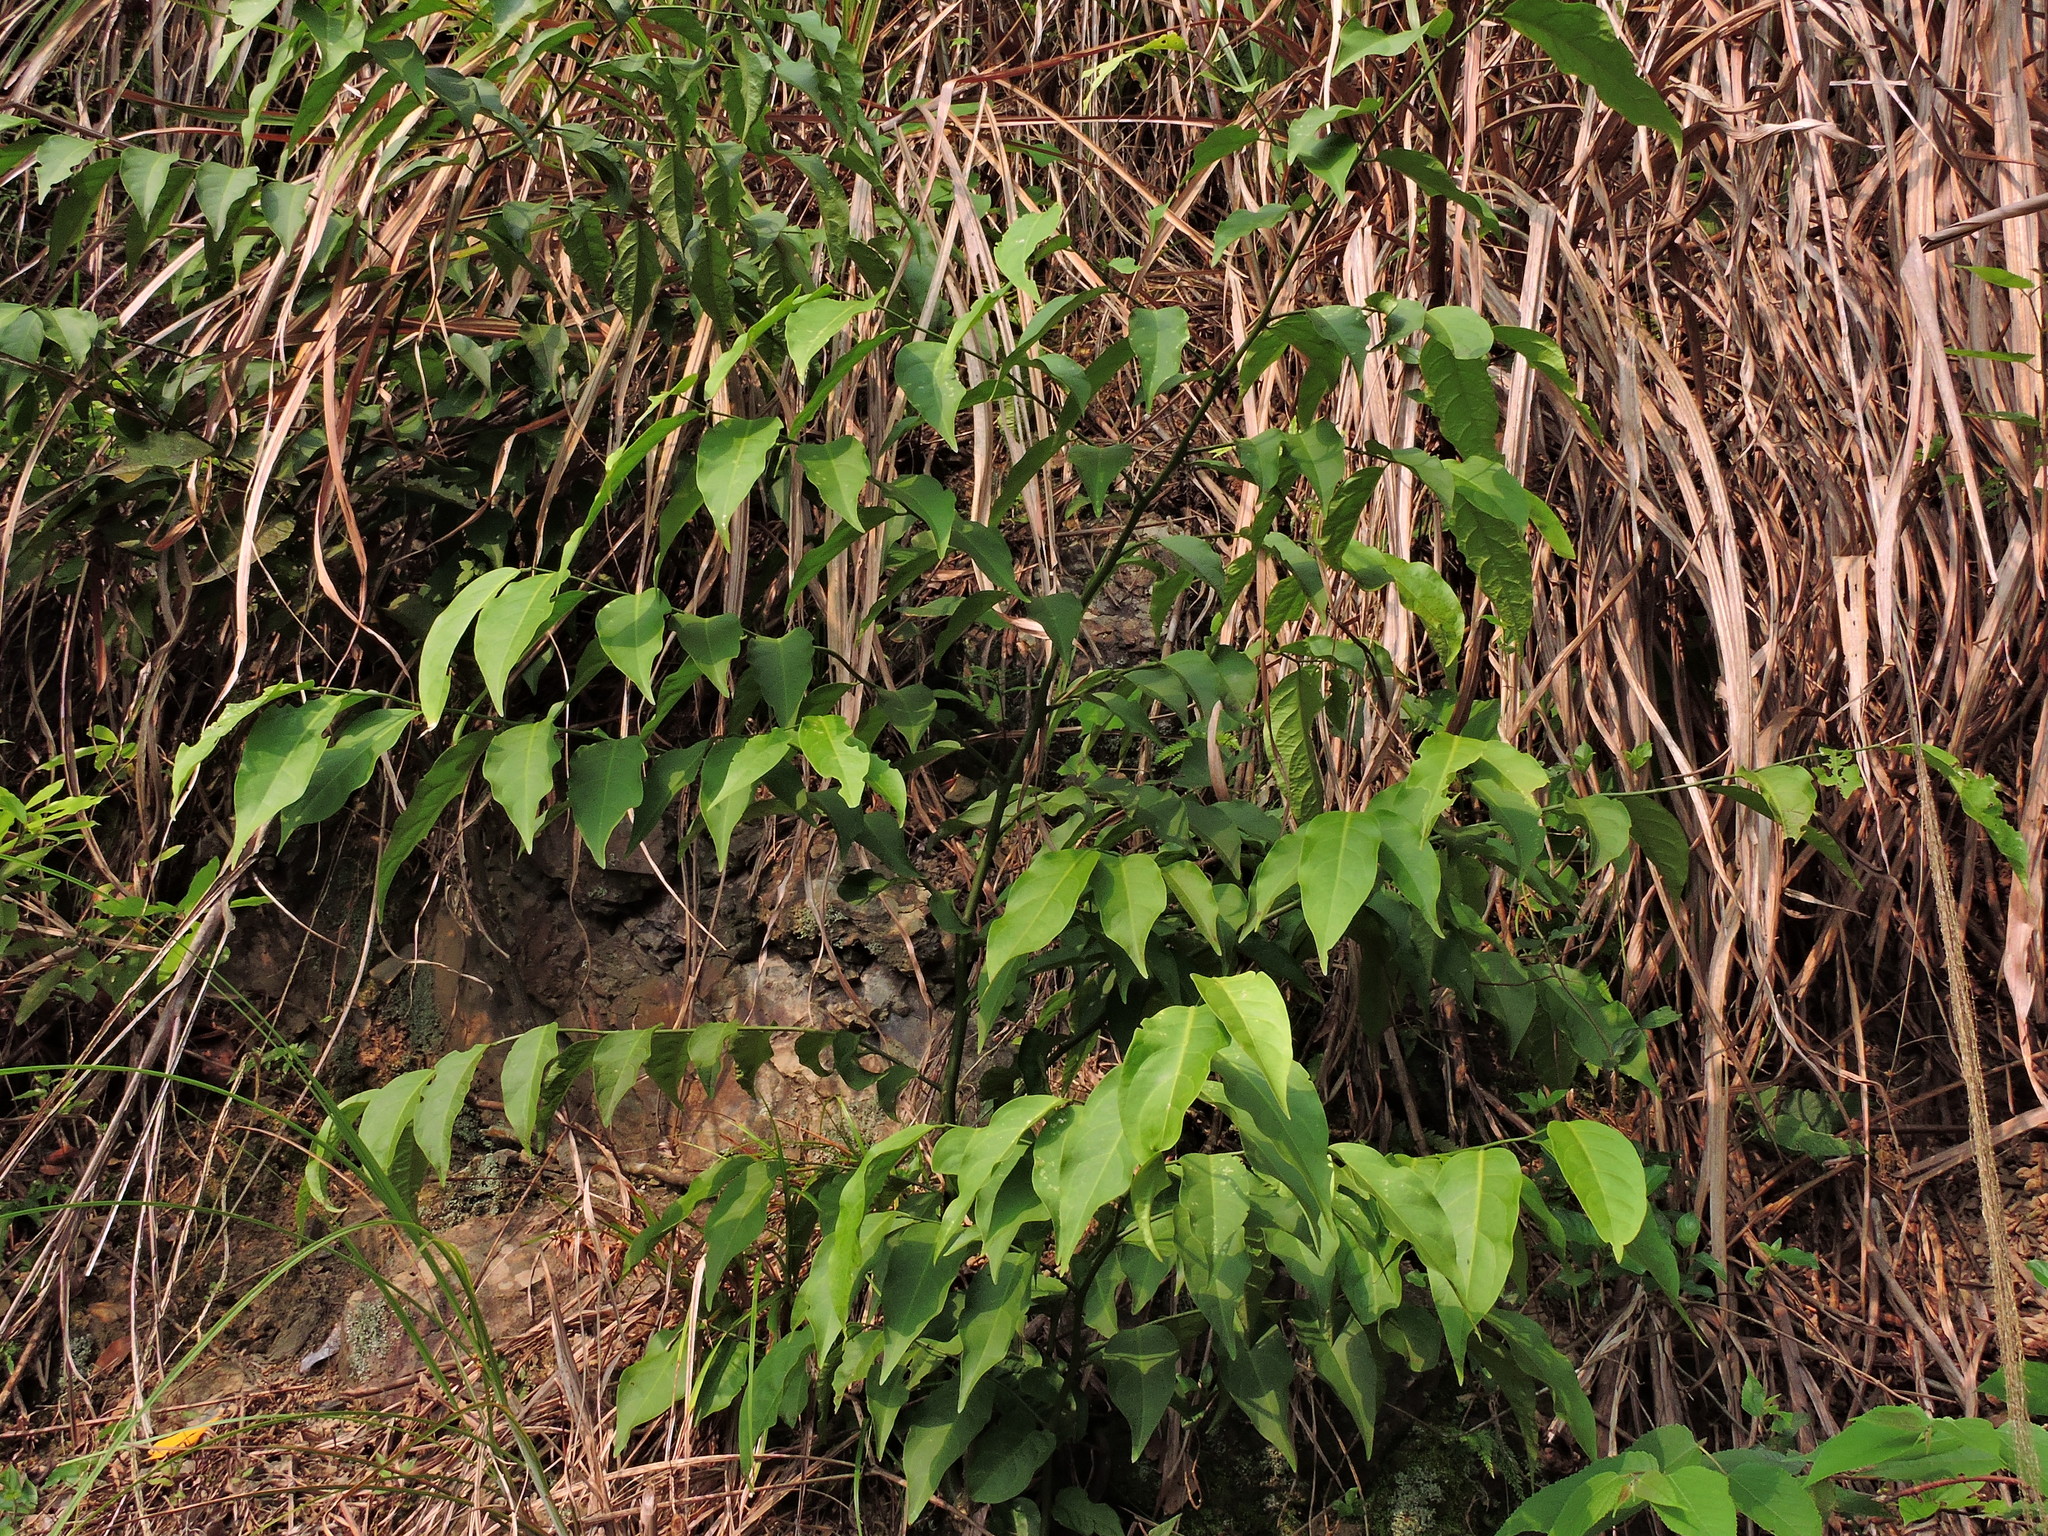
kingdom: Plantae
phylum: Tracheophyta
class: Magnoliopsida
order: Brassicales
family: Capparaceae
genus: Capparis
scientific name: Capparis sabiifolia
